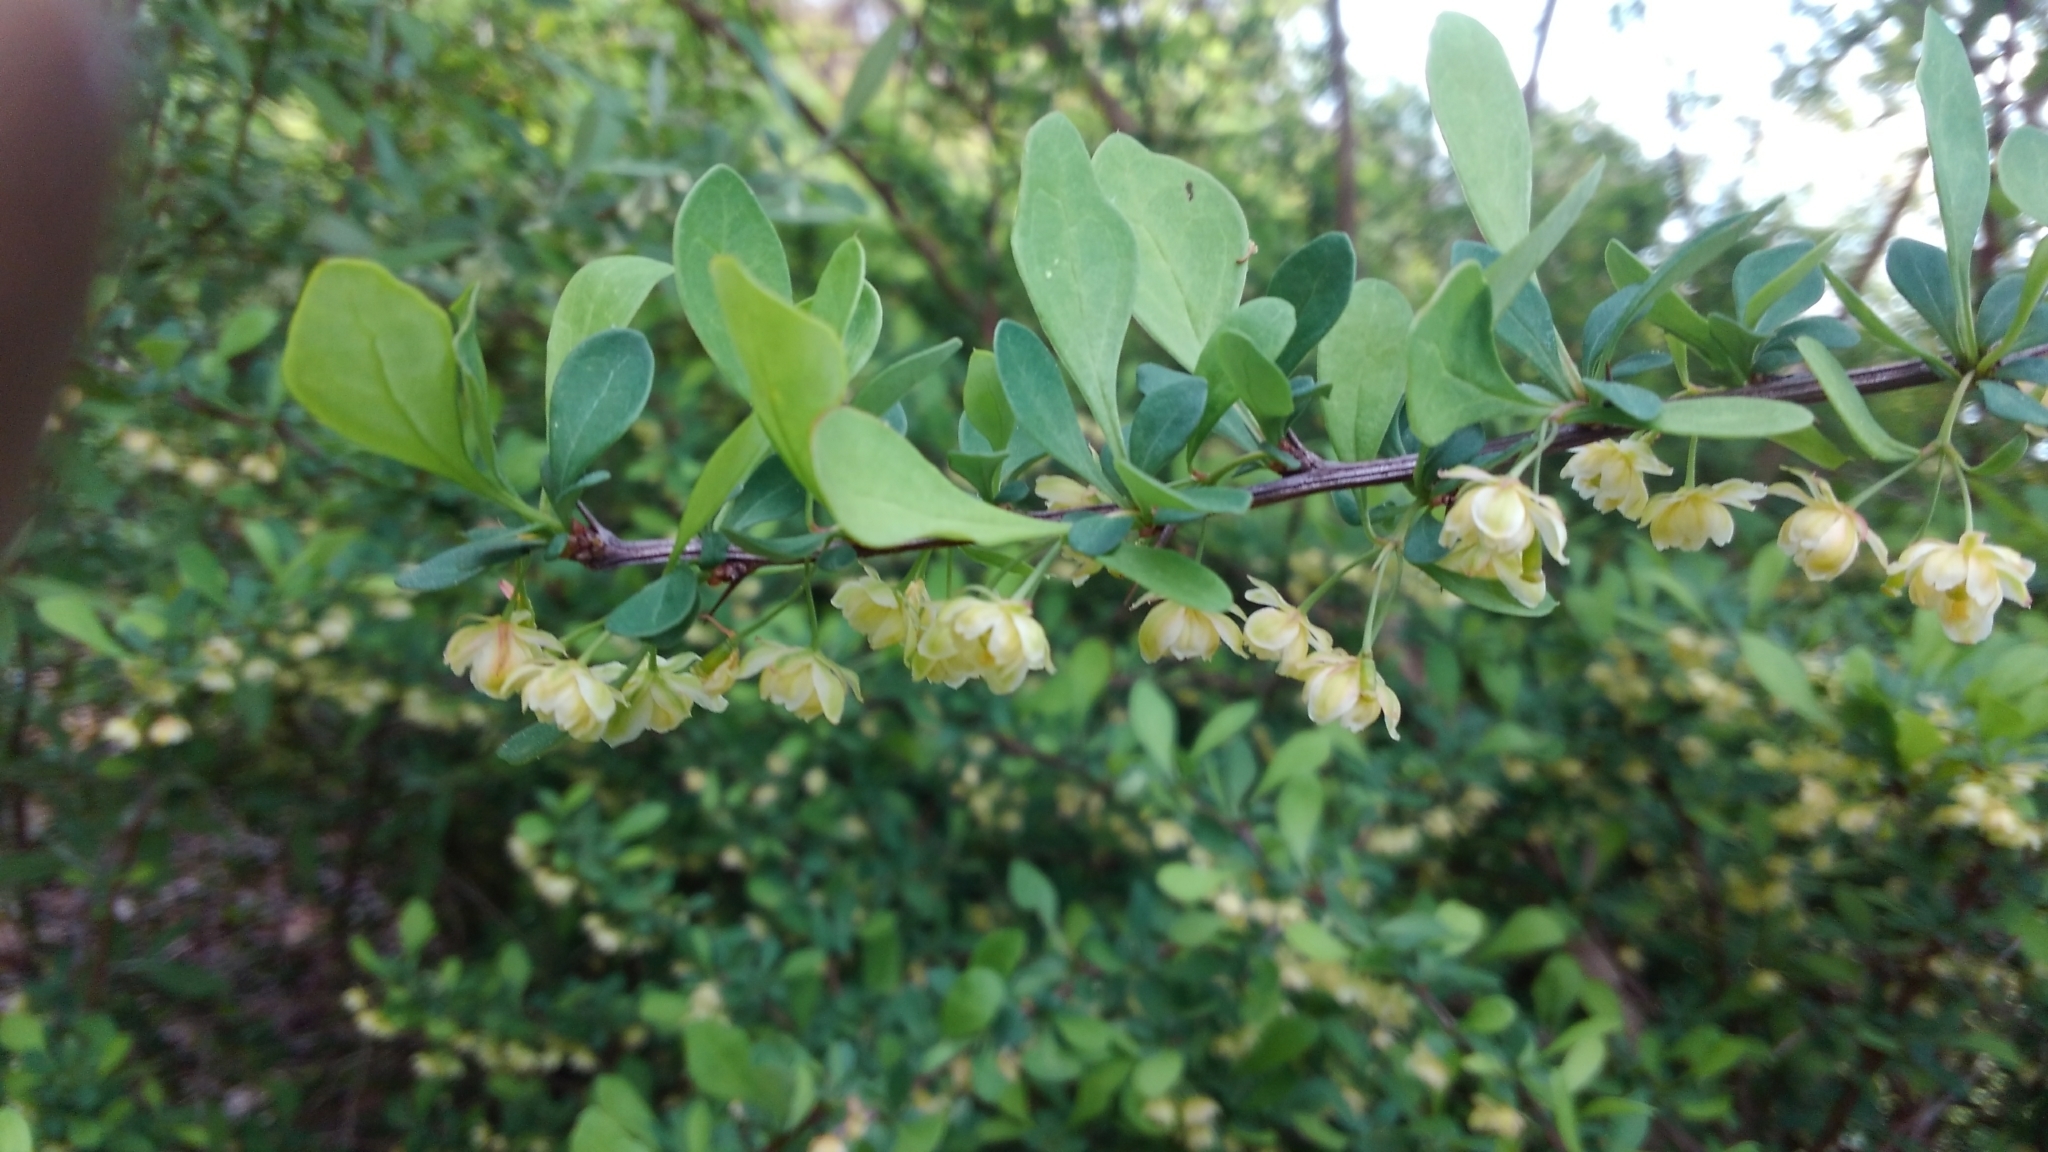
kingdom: Plantae
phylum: Tracheophyta
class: Magnoliopsida
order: Ranunculales
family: Berberidaceae
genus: Berberis
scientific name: Berberis thunbergii
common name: Japanese barberry
